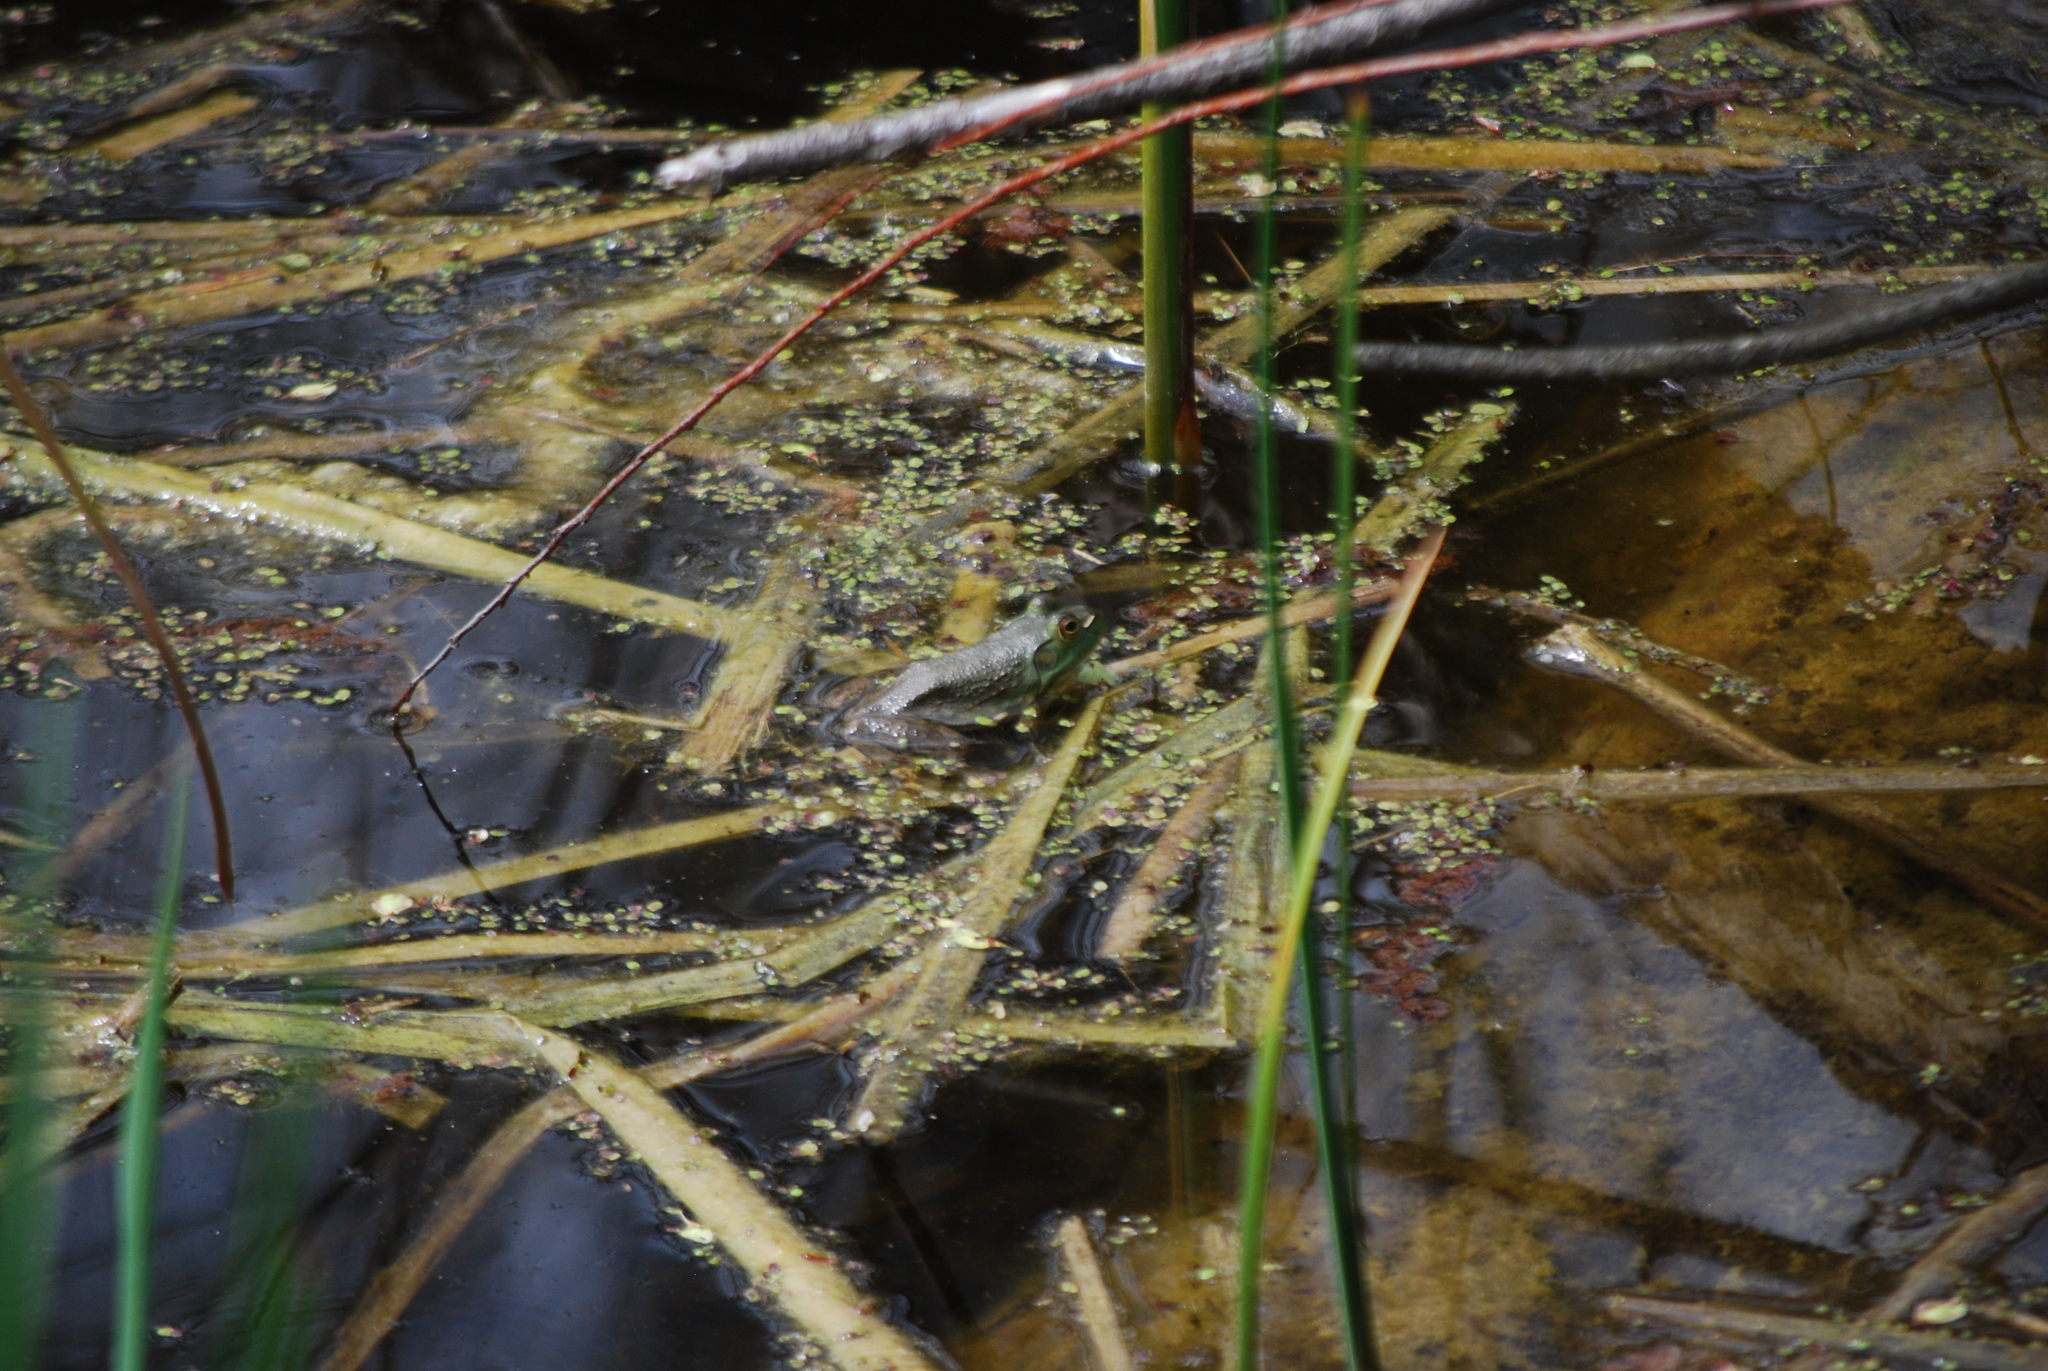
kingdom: Animalia
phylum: Chordata
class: Amphibia
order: Anura
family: Ranidae
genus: Lithobates
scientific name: Lithobates catesbeianus
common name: American bullfrog
